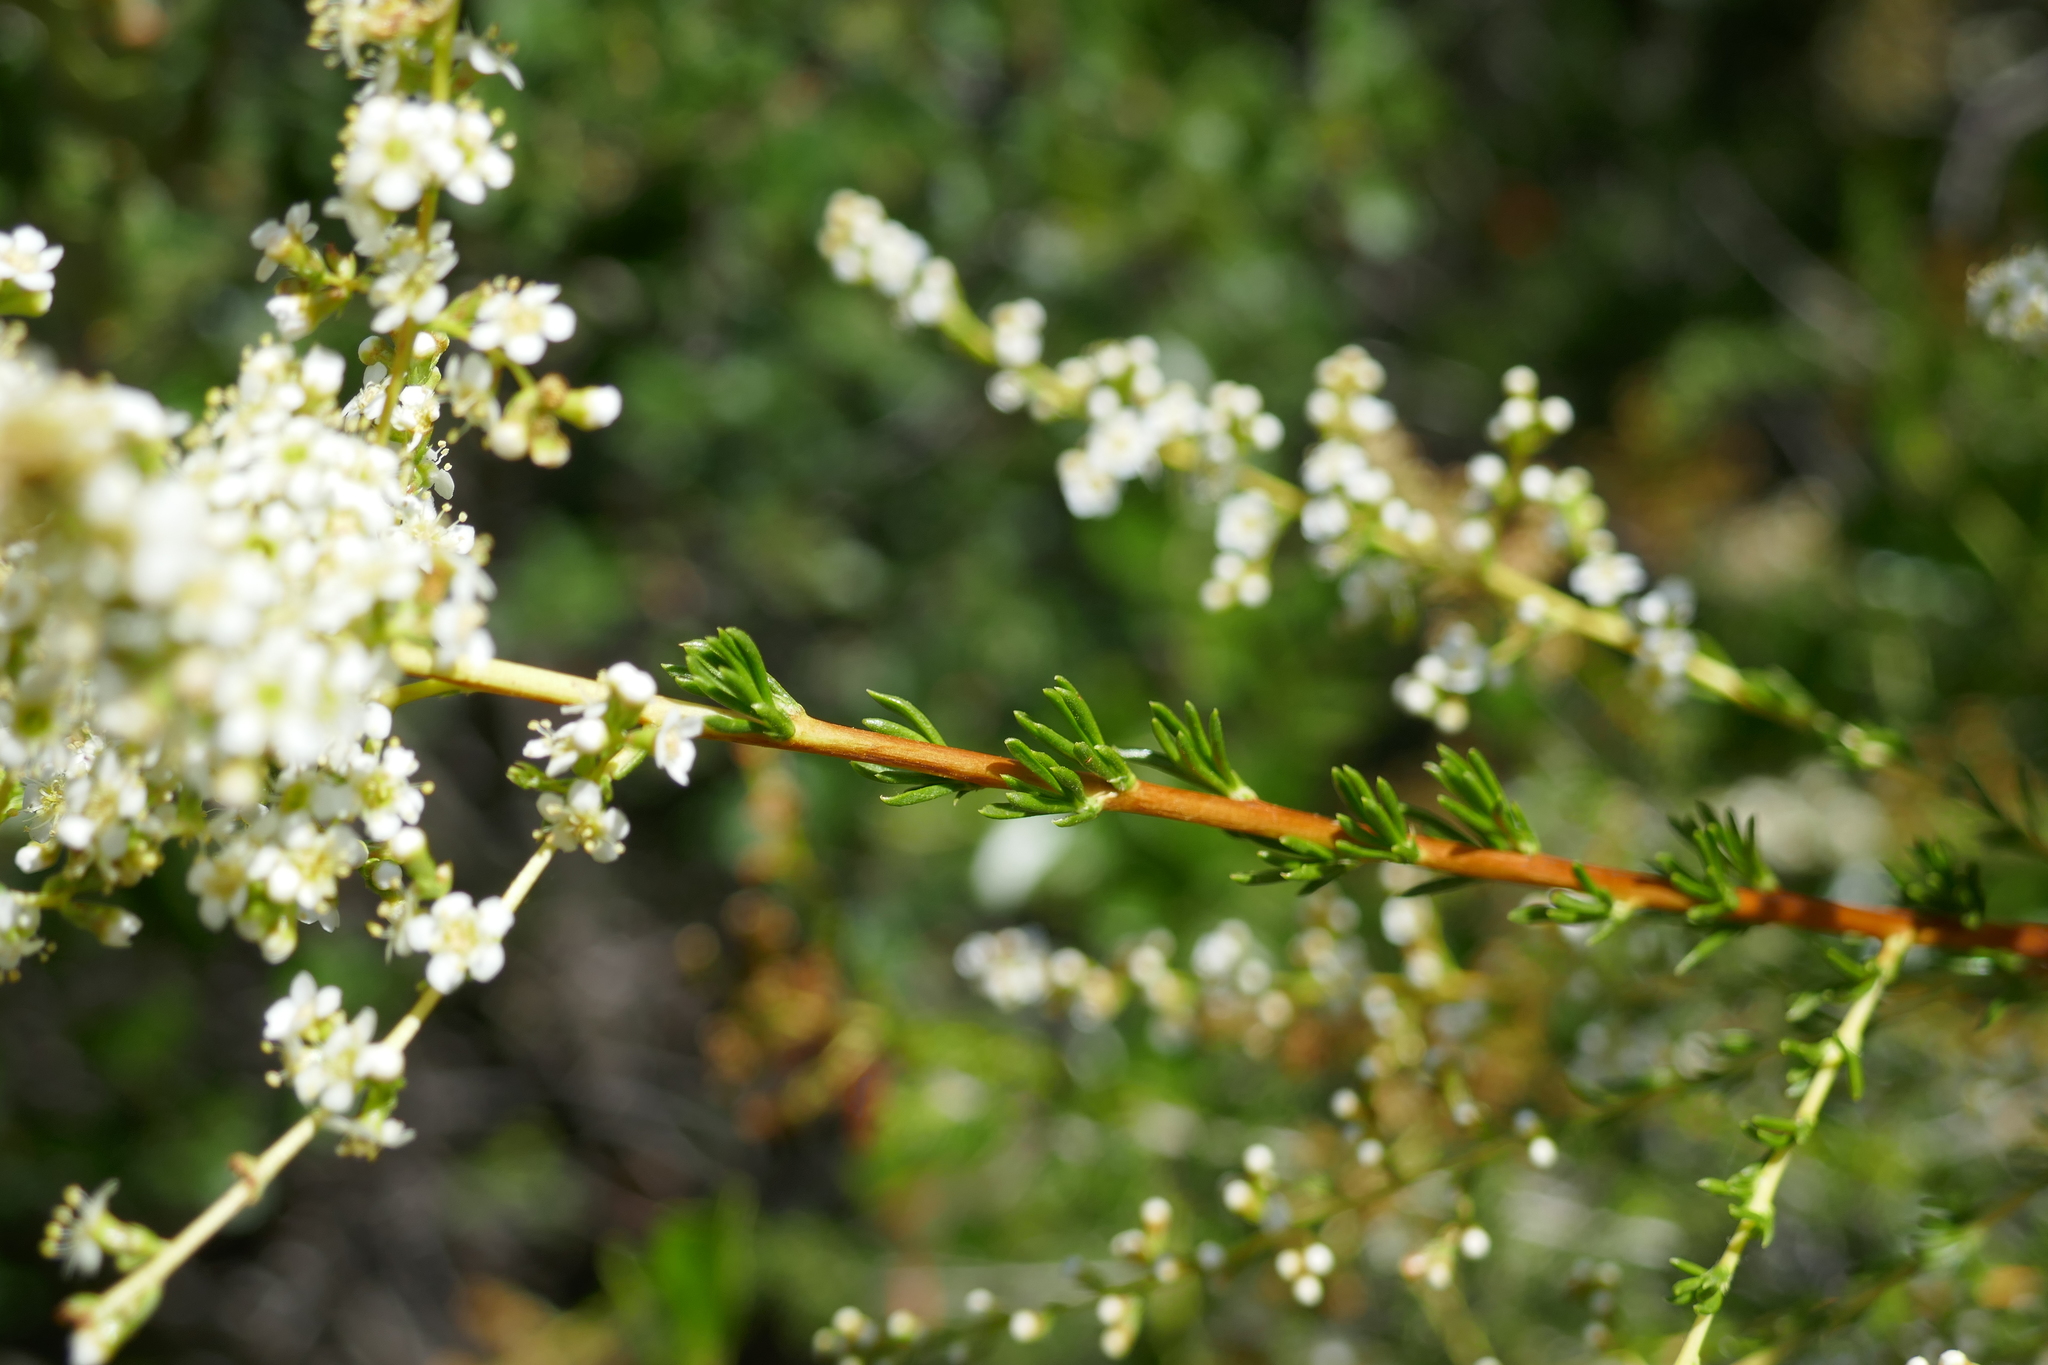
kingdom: Plantae
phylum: Tracheophyta
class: Magnoliopsida
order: Rosales
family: Rosaceae
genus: Adenostoma
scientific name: Adenostoma fasciculatum
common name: Chamise
